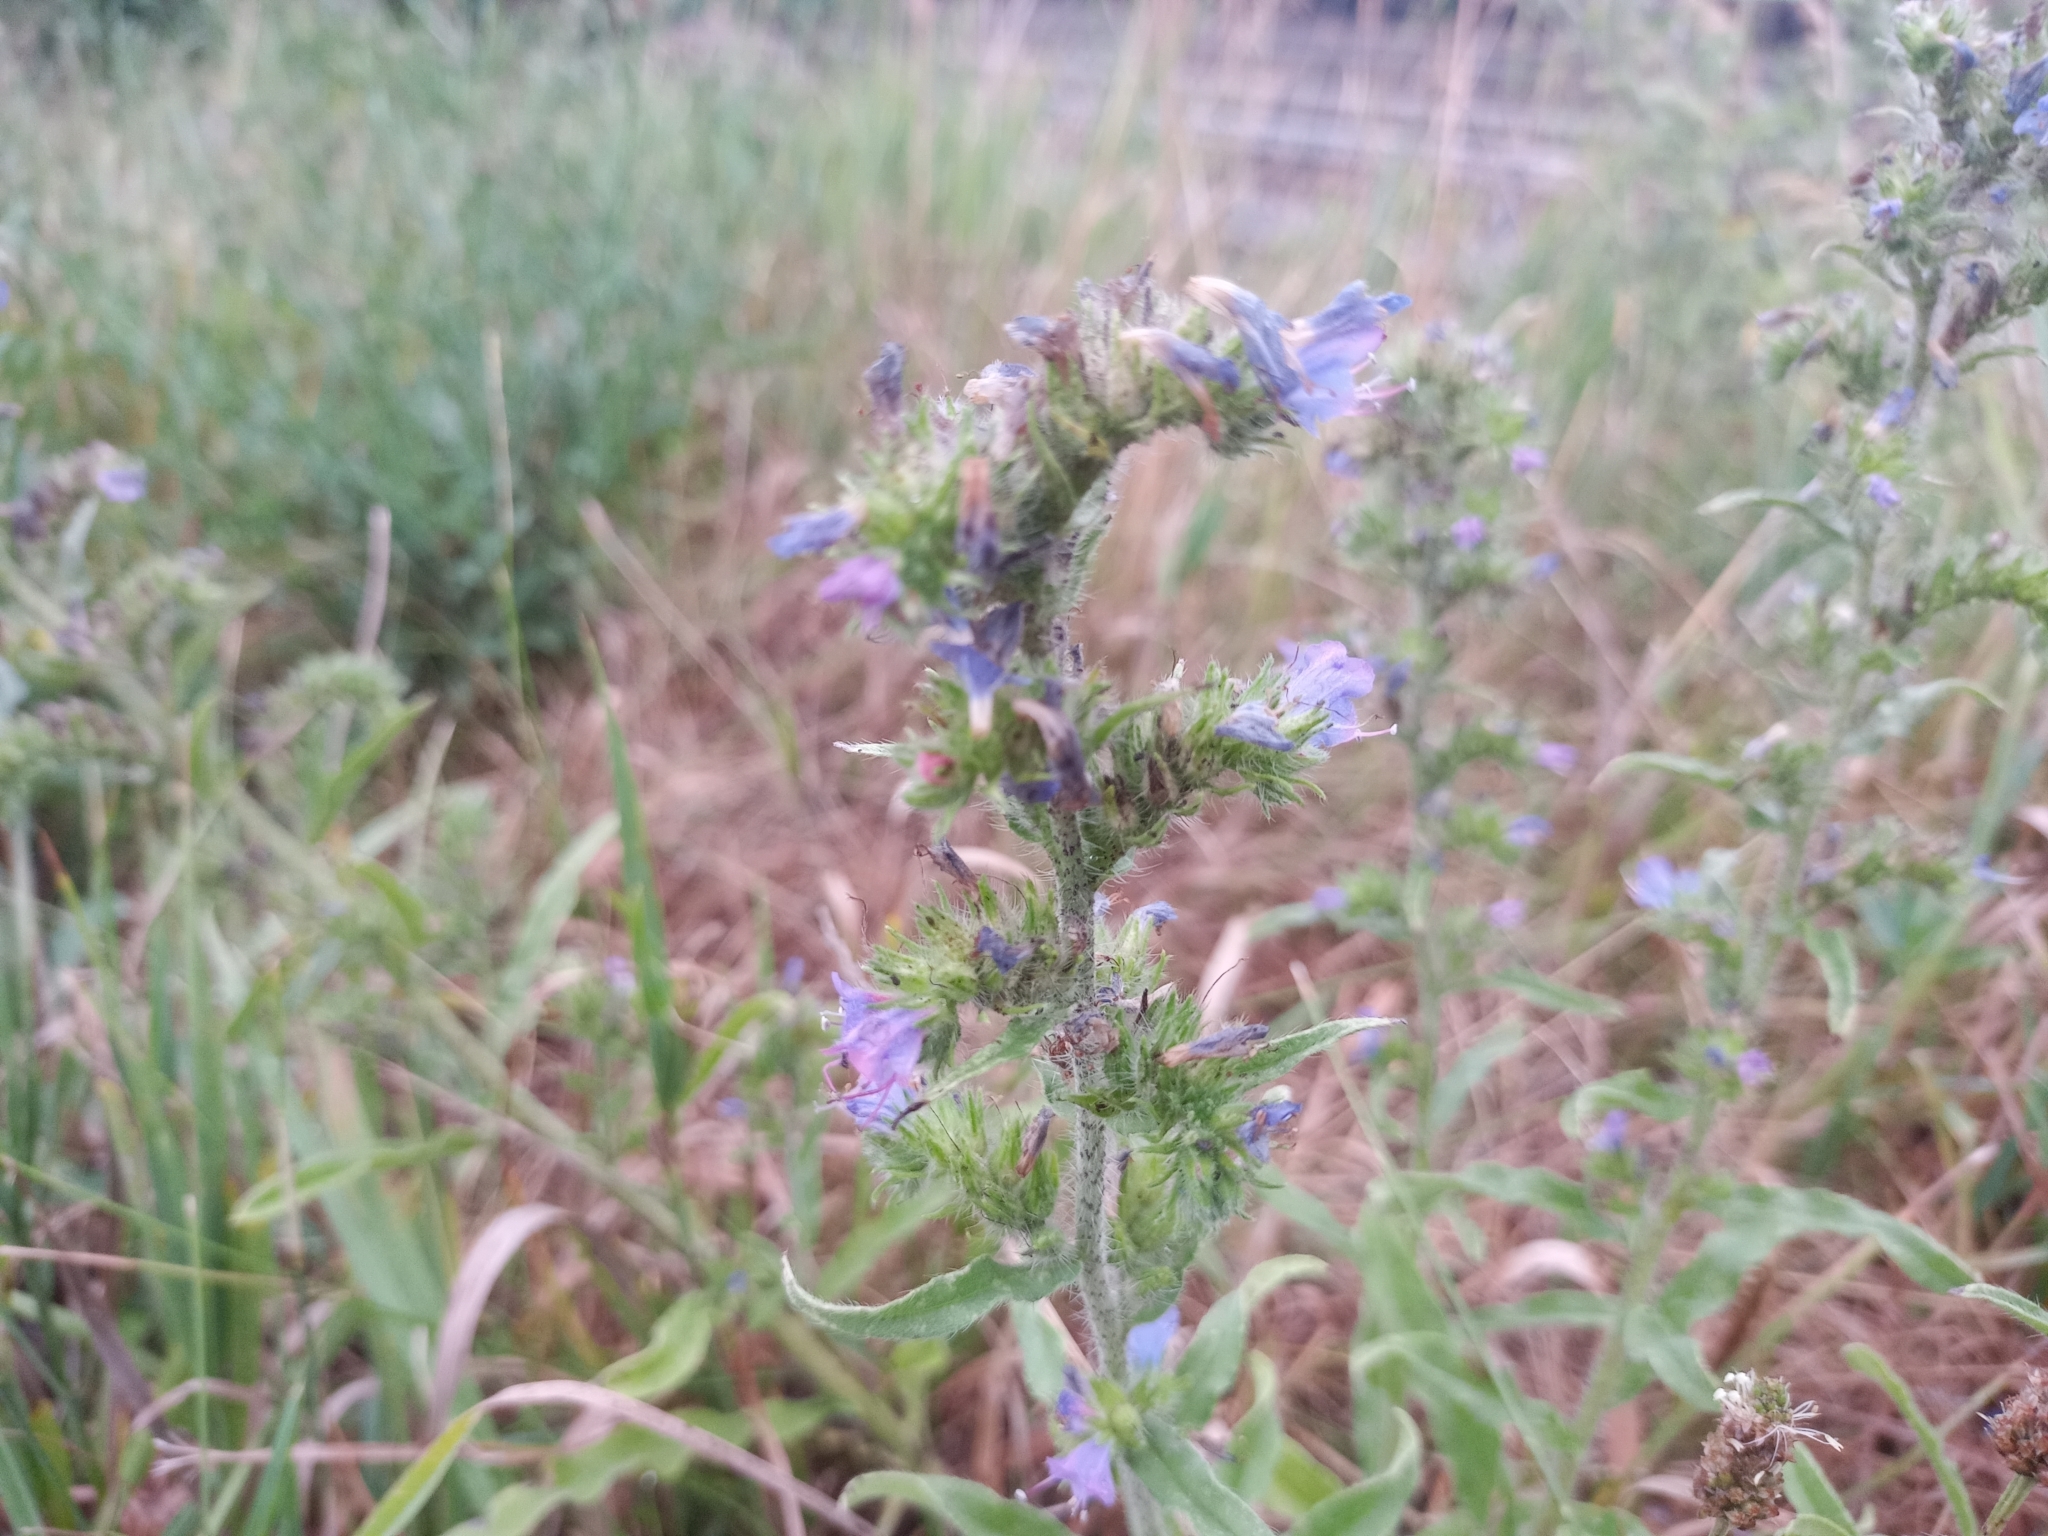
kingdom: Plantae
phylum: Tracheophyta
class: Magnoliopsida
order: Boraginales
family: Boraginaceae
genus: Echium
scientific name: Echium vulgare
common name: Common viper's bugloss
